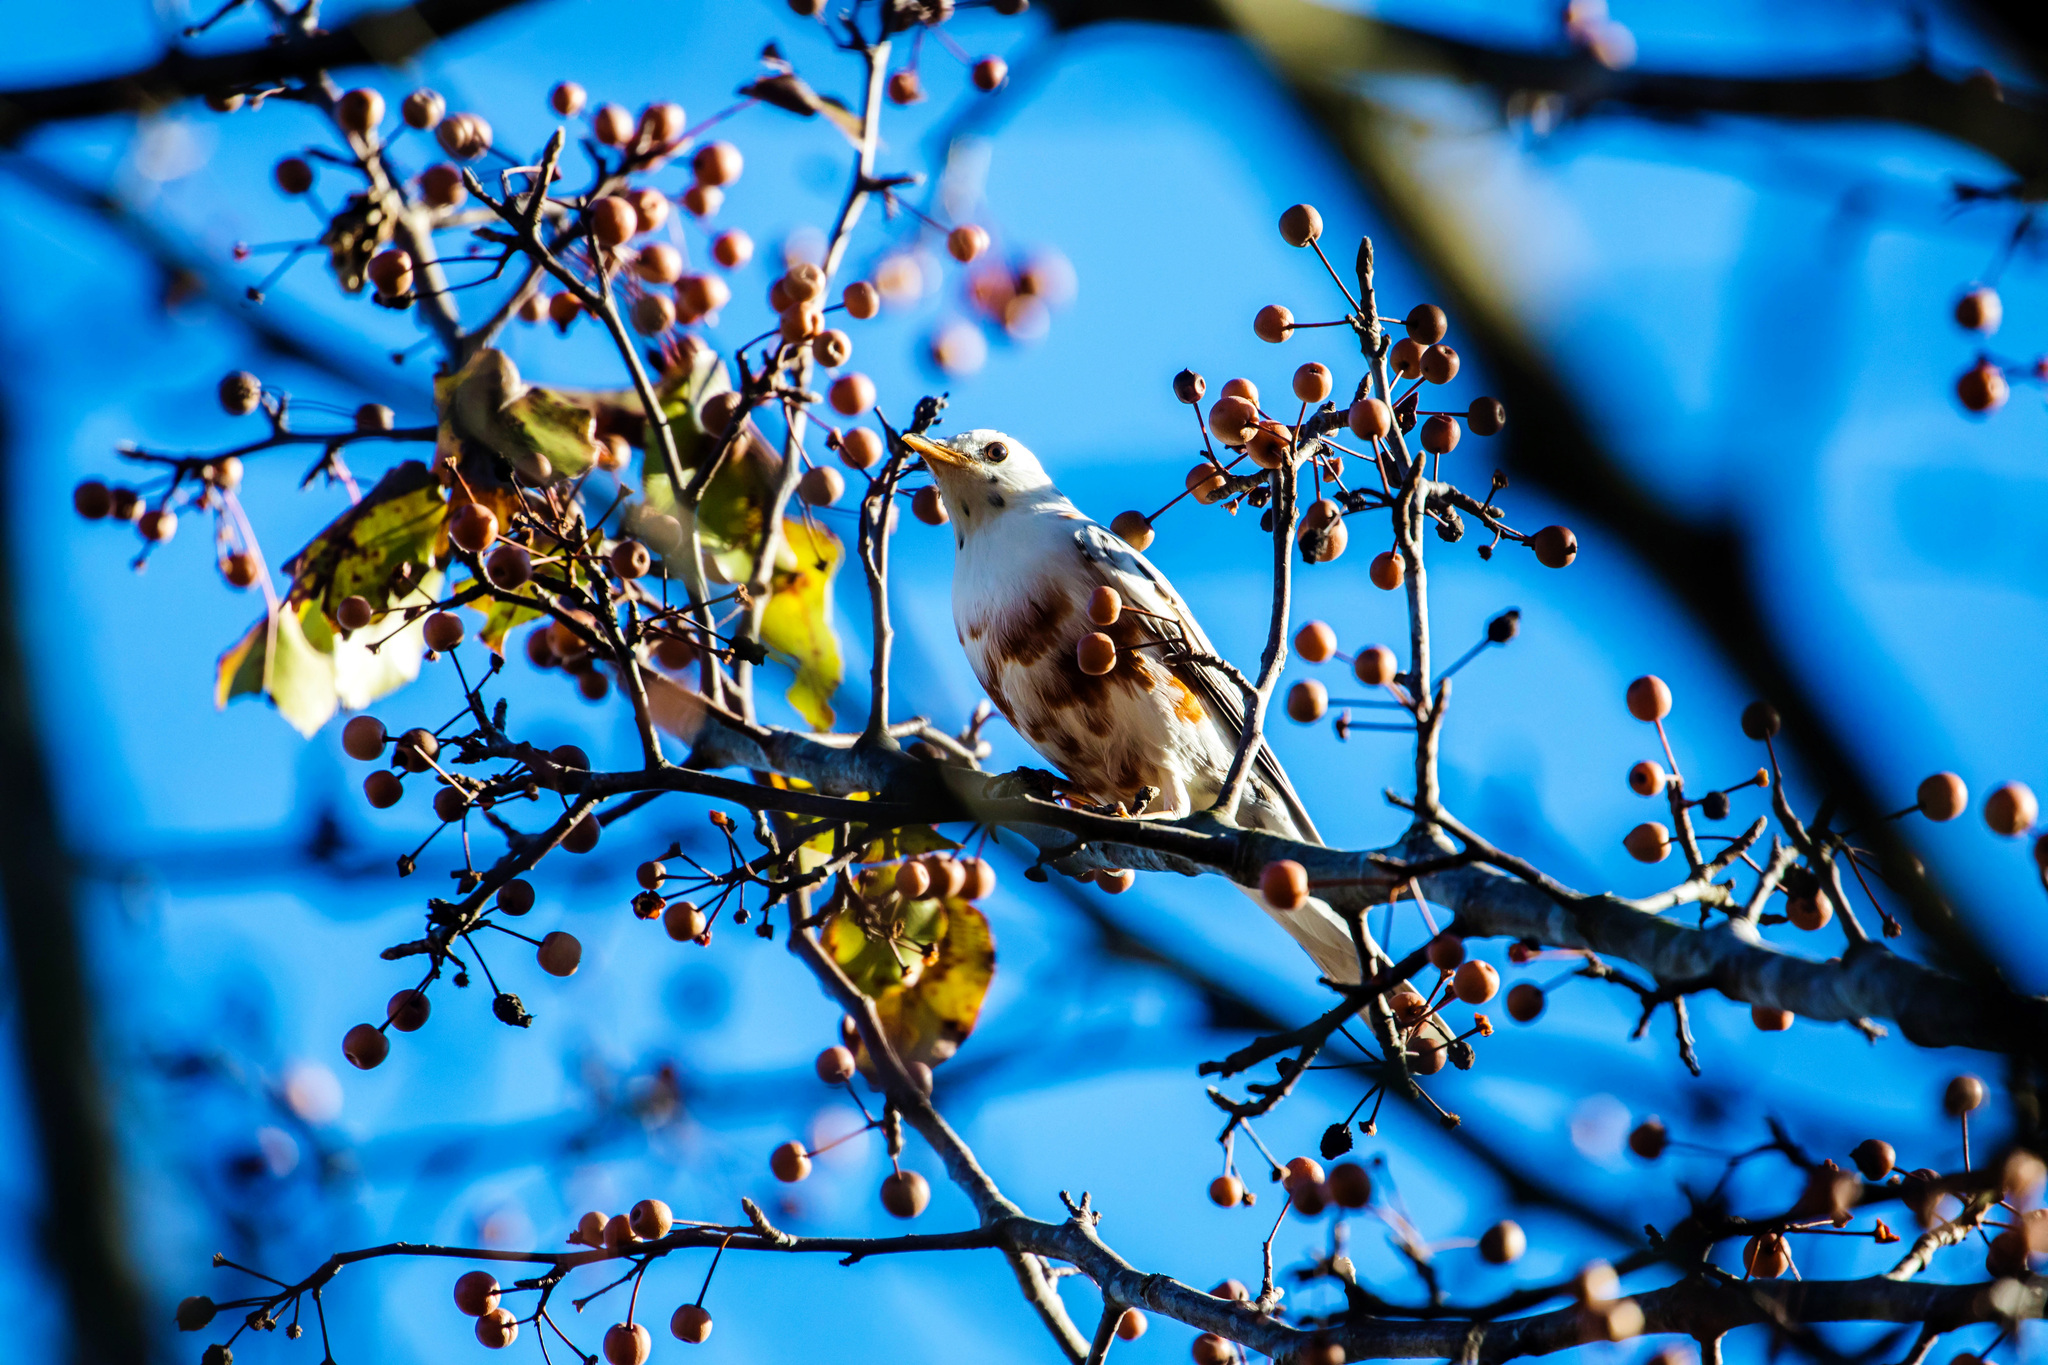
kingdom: Animalia
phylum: Chordata
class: Aves
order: Passeriformes
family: Turdidae
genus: Turdus
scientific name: Turdus migratorius
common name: American robin
